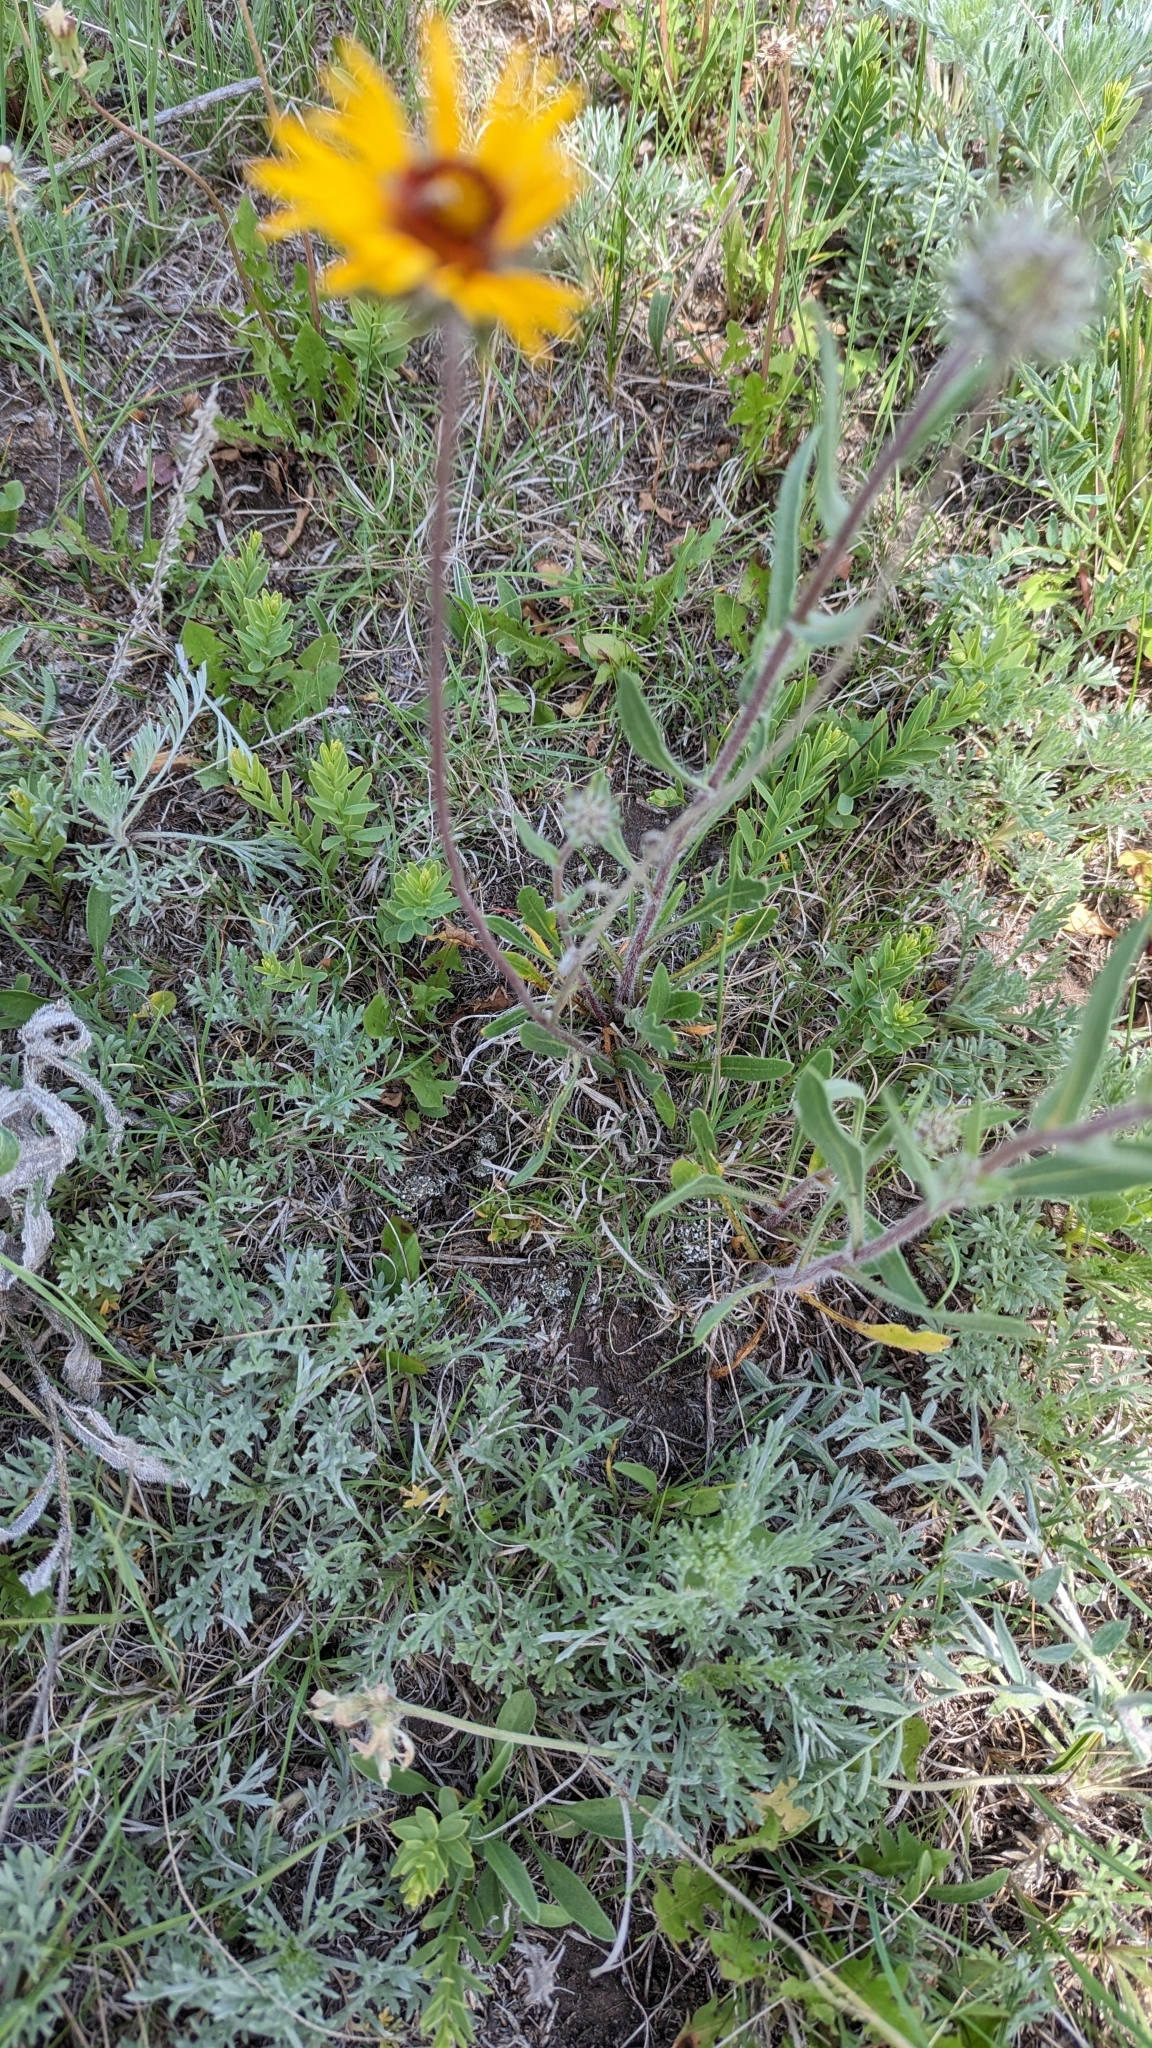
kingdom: Plantae
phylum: Tracheophyta
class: Magnoliopsida
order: Asterales
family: Asteraceae
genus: Gaillardia
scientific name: Gaillardia aristata
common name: Blanket-flower
